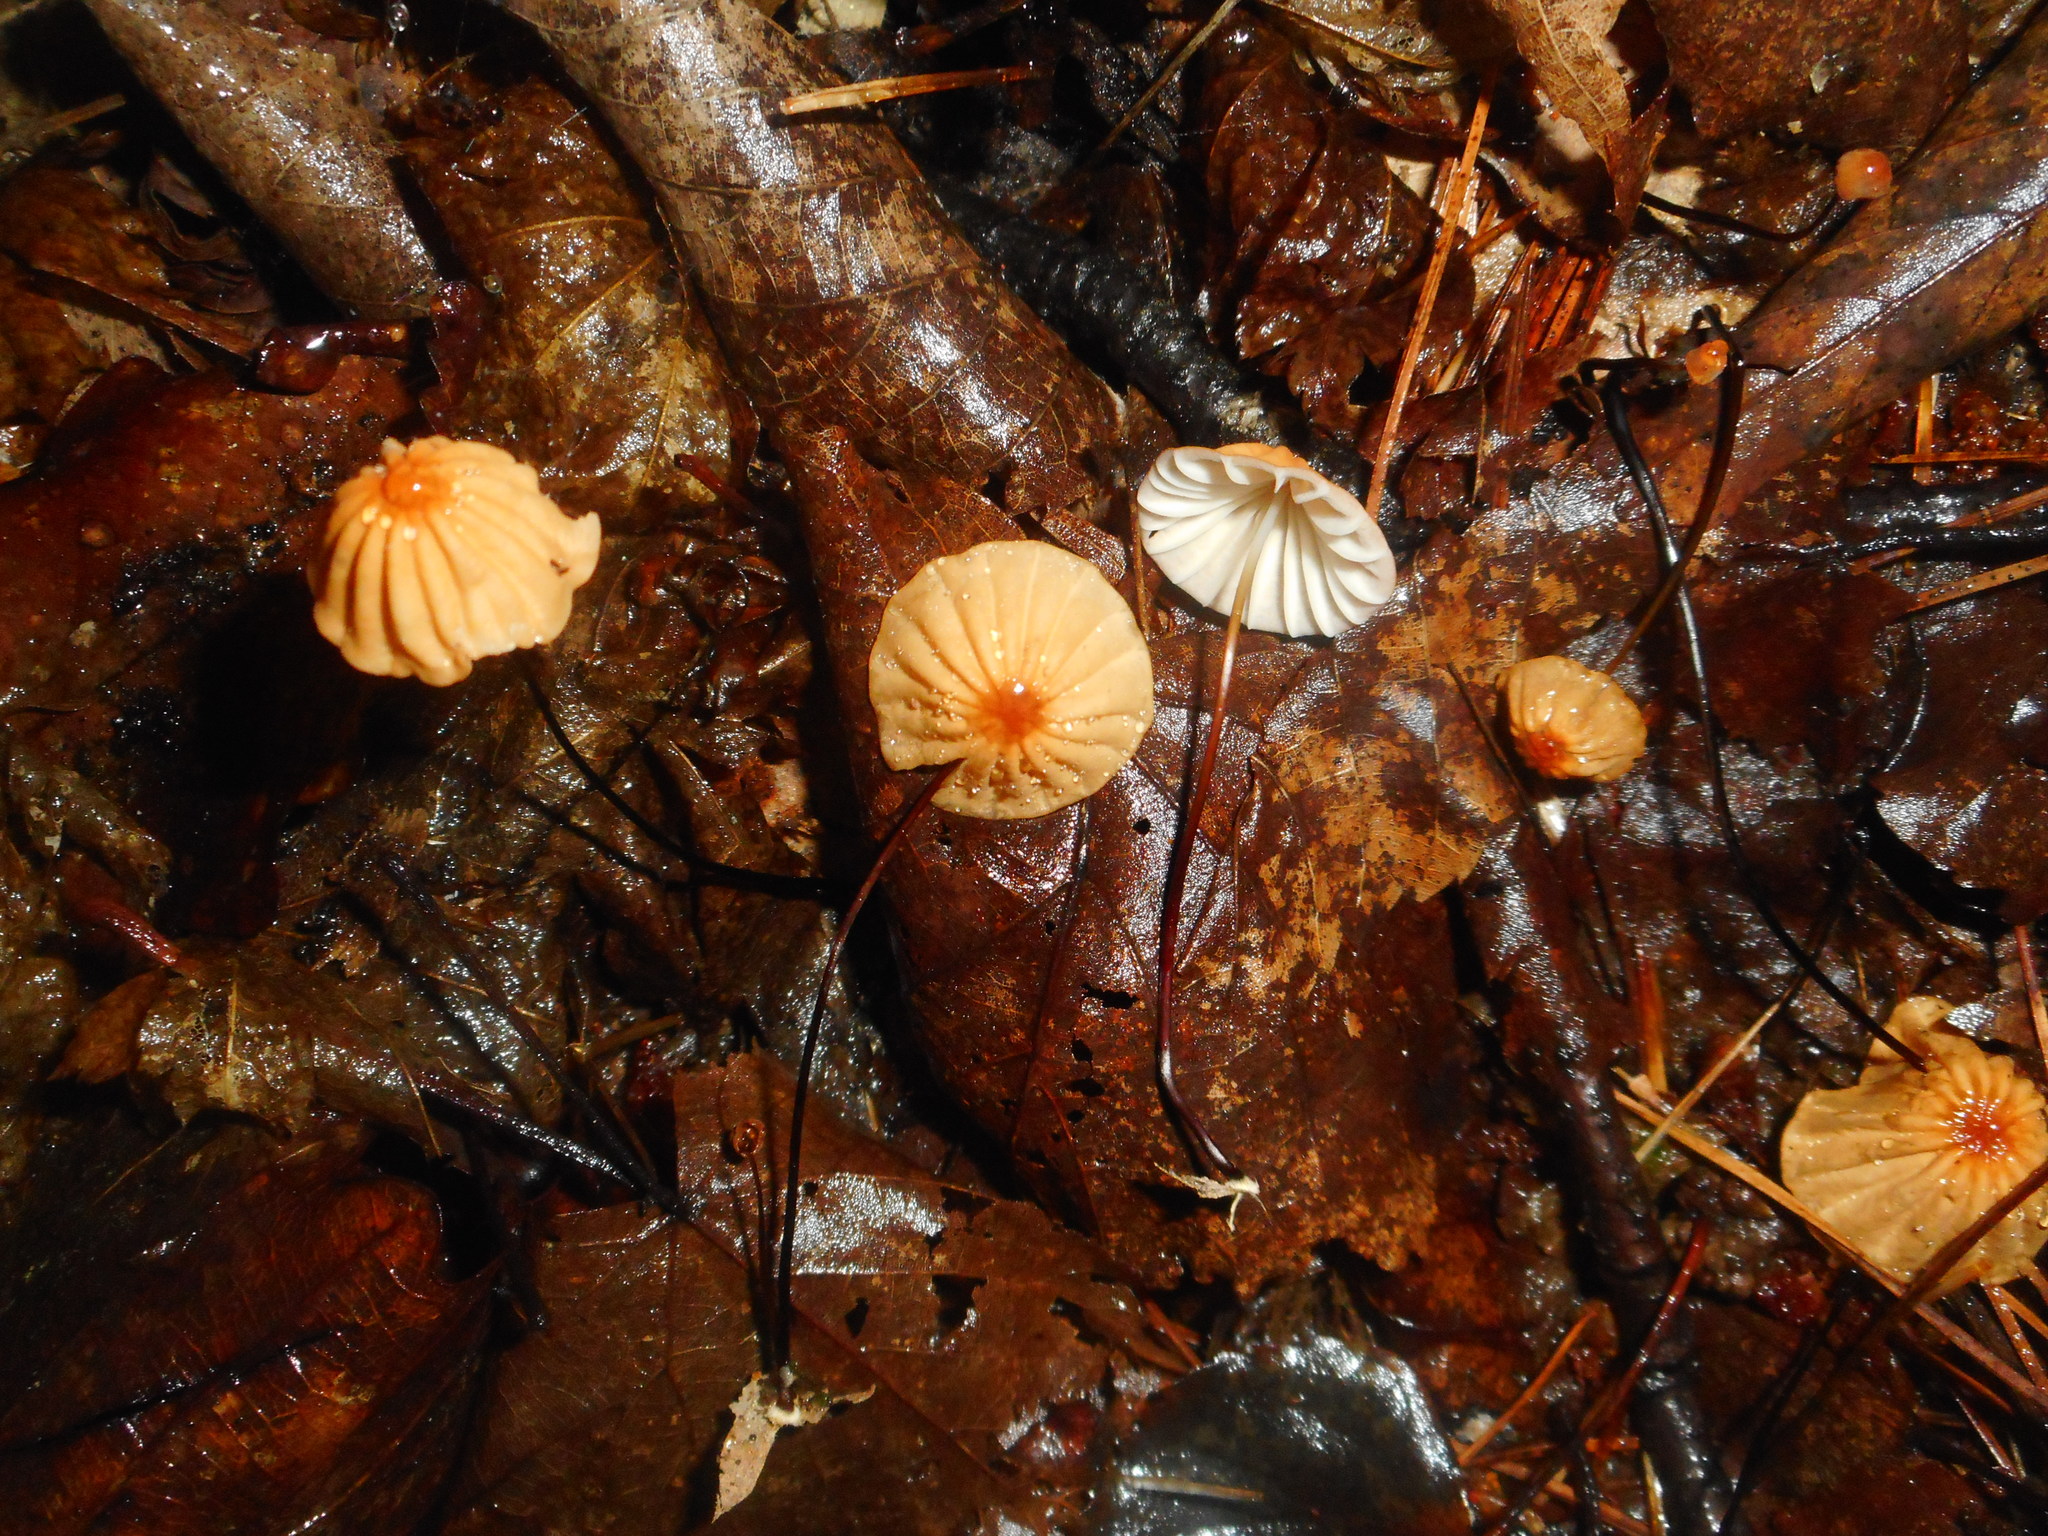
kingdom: Fungi
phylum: Basidiomycota
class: Agaricomycetes
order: Agaricales
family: Marasmiaceae
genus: Marasmius
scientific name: Marasmius siccus
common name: Orange pinwheel
